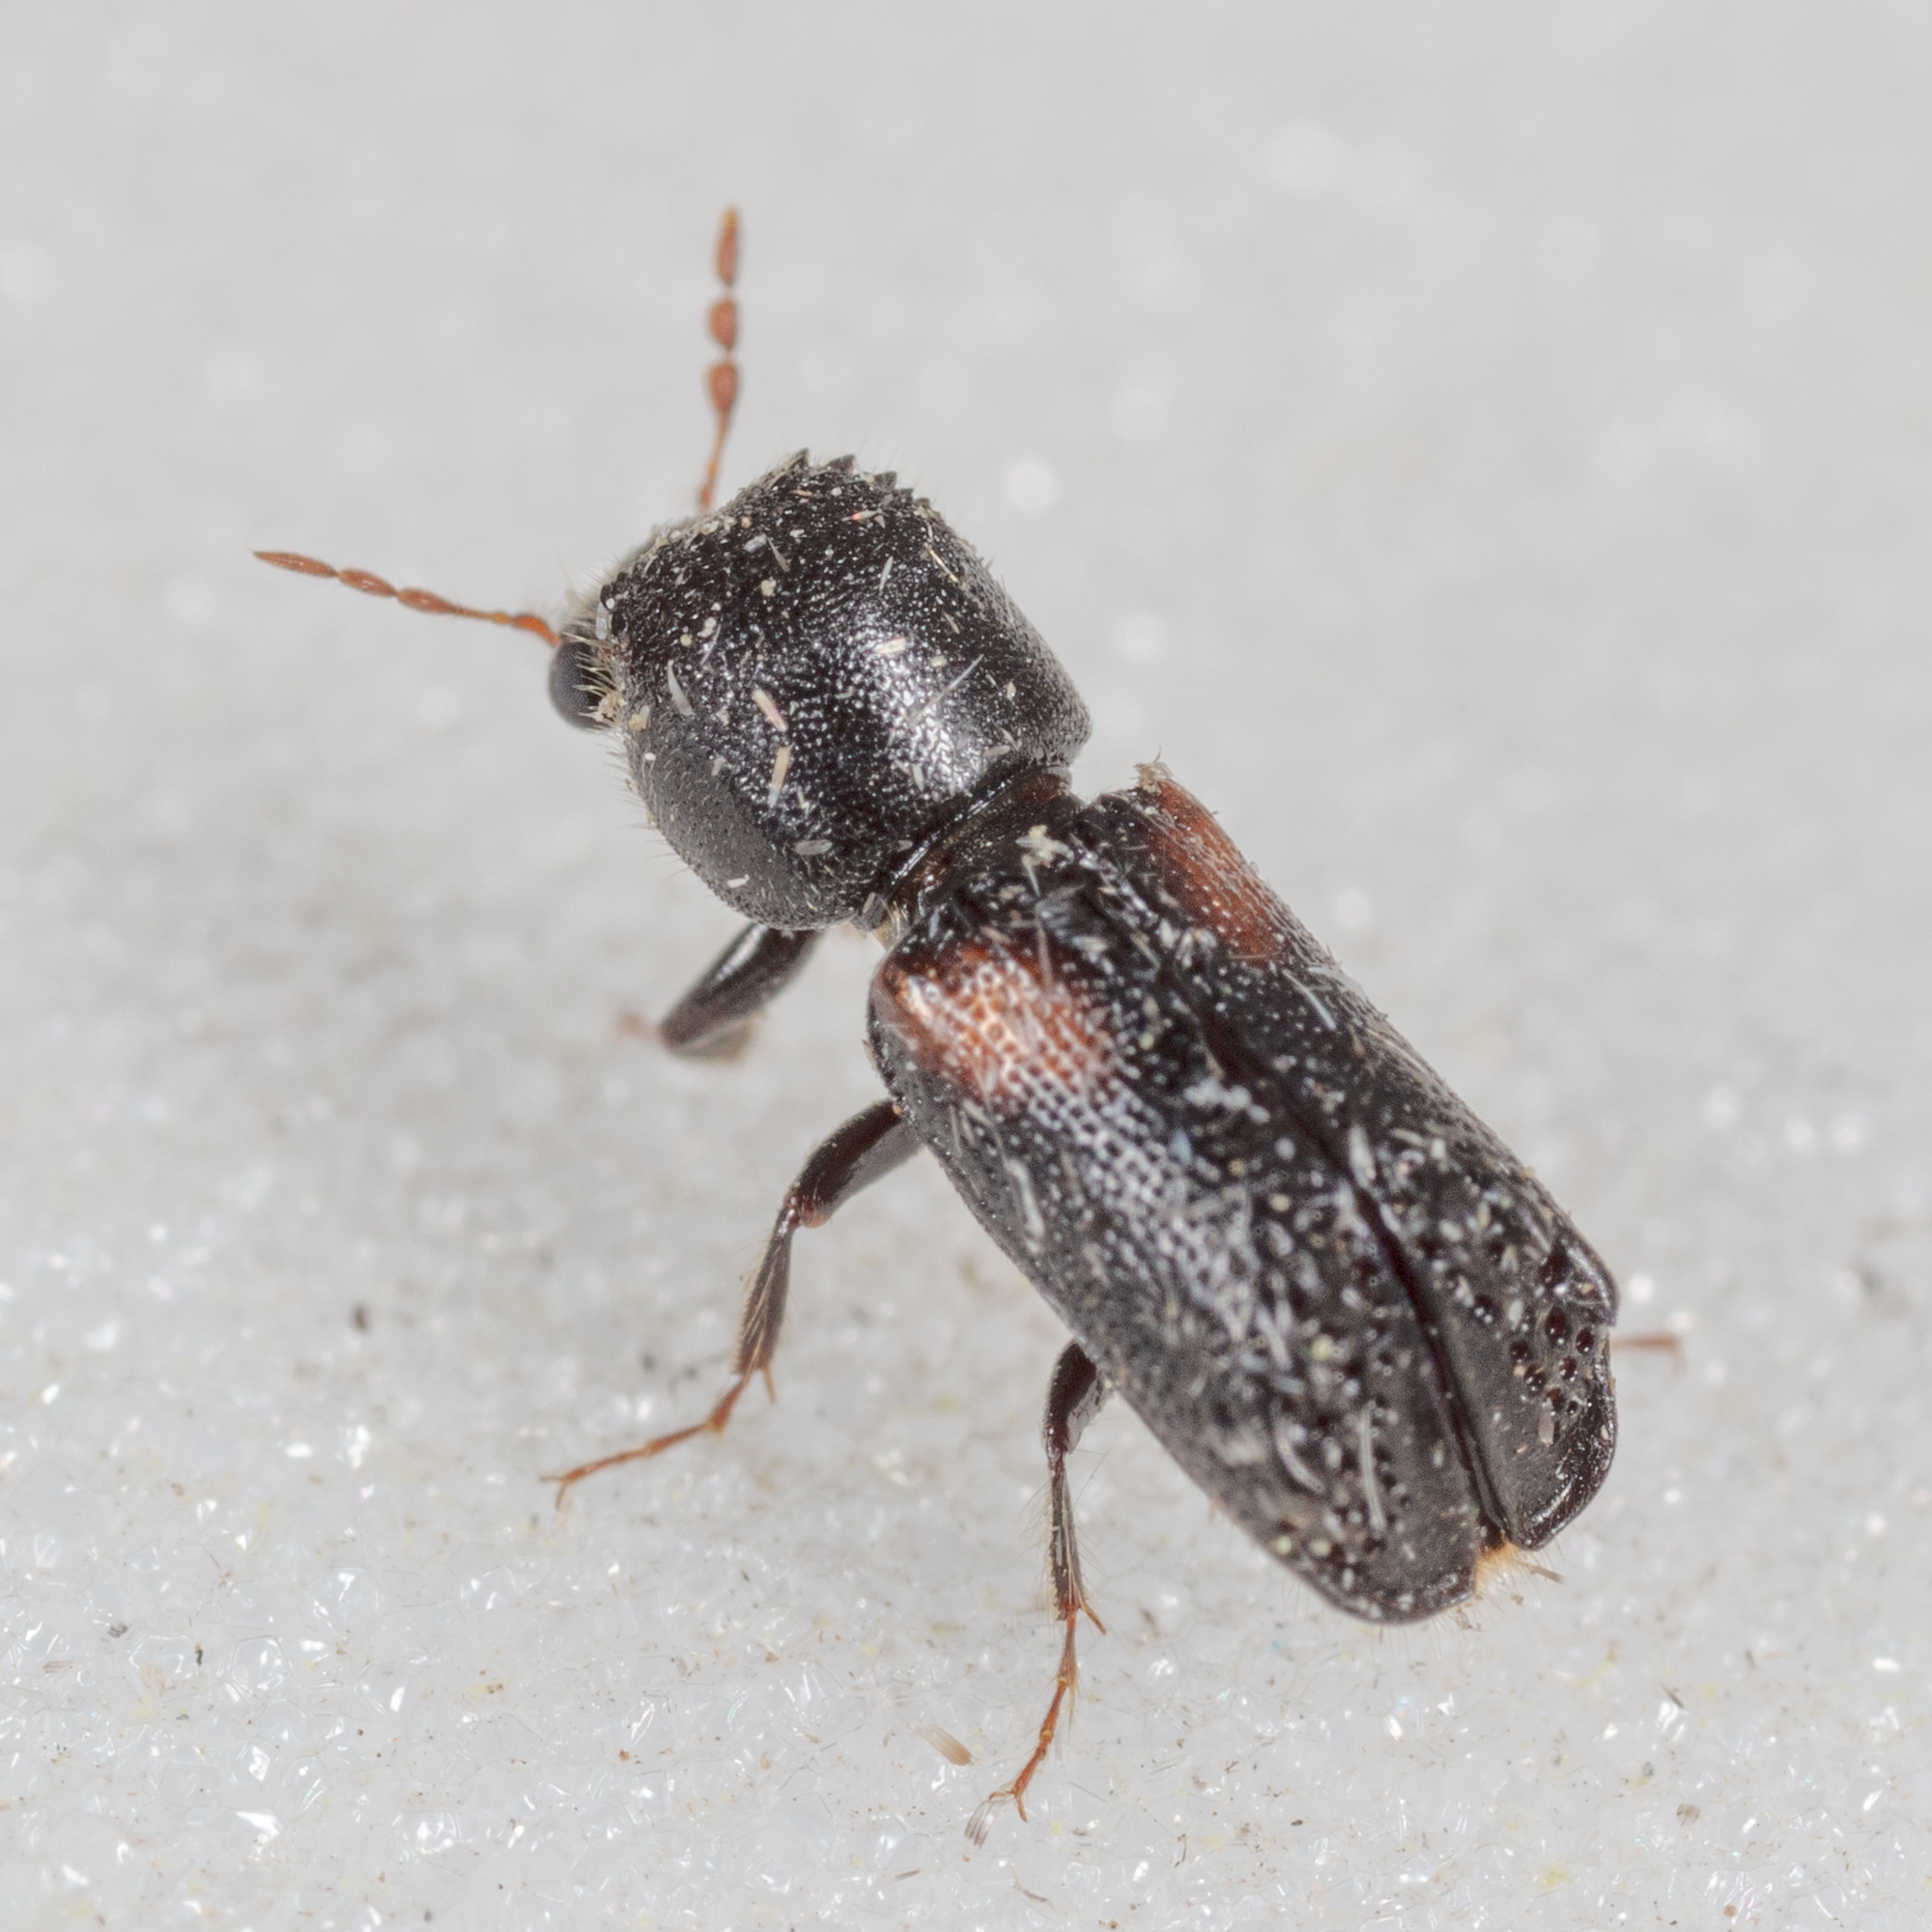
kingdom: Animalia
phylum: Arthropoda
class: Insecta
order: Coleoptera
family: Bostrichidae
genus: Xylobiops
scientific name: Xylobiops basilaris
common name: Red-shouldered bostrichid
